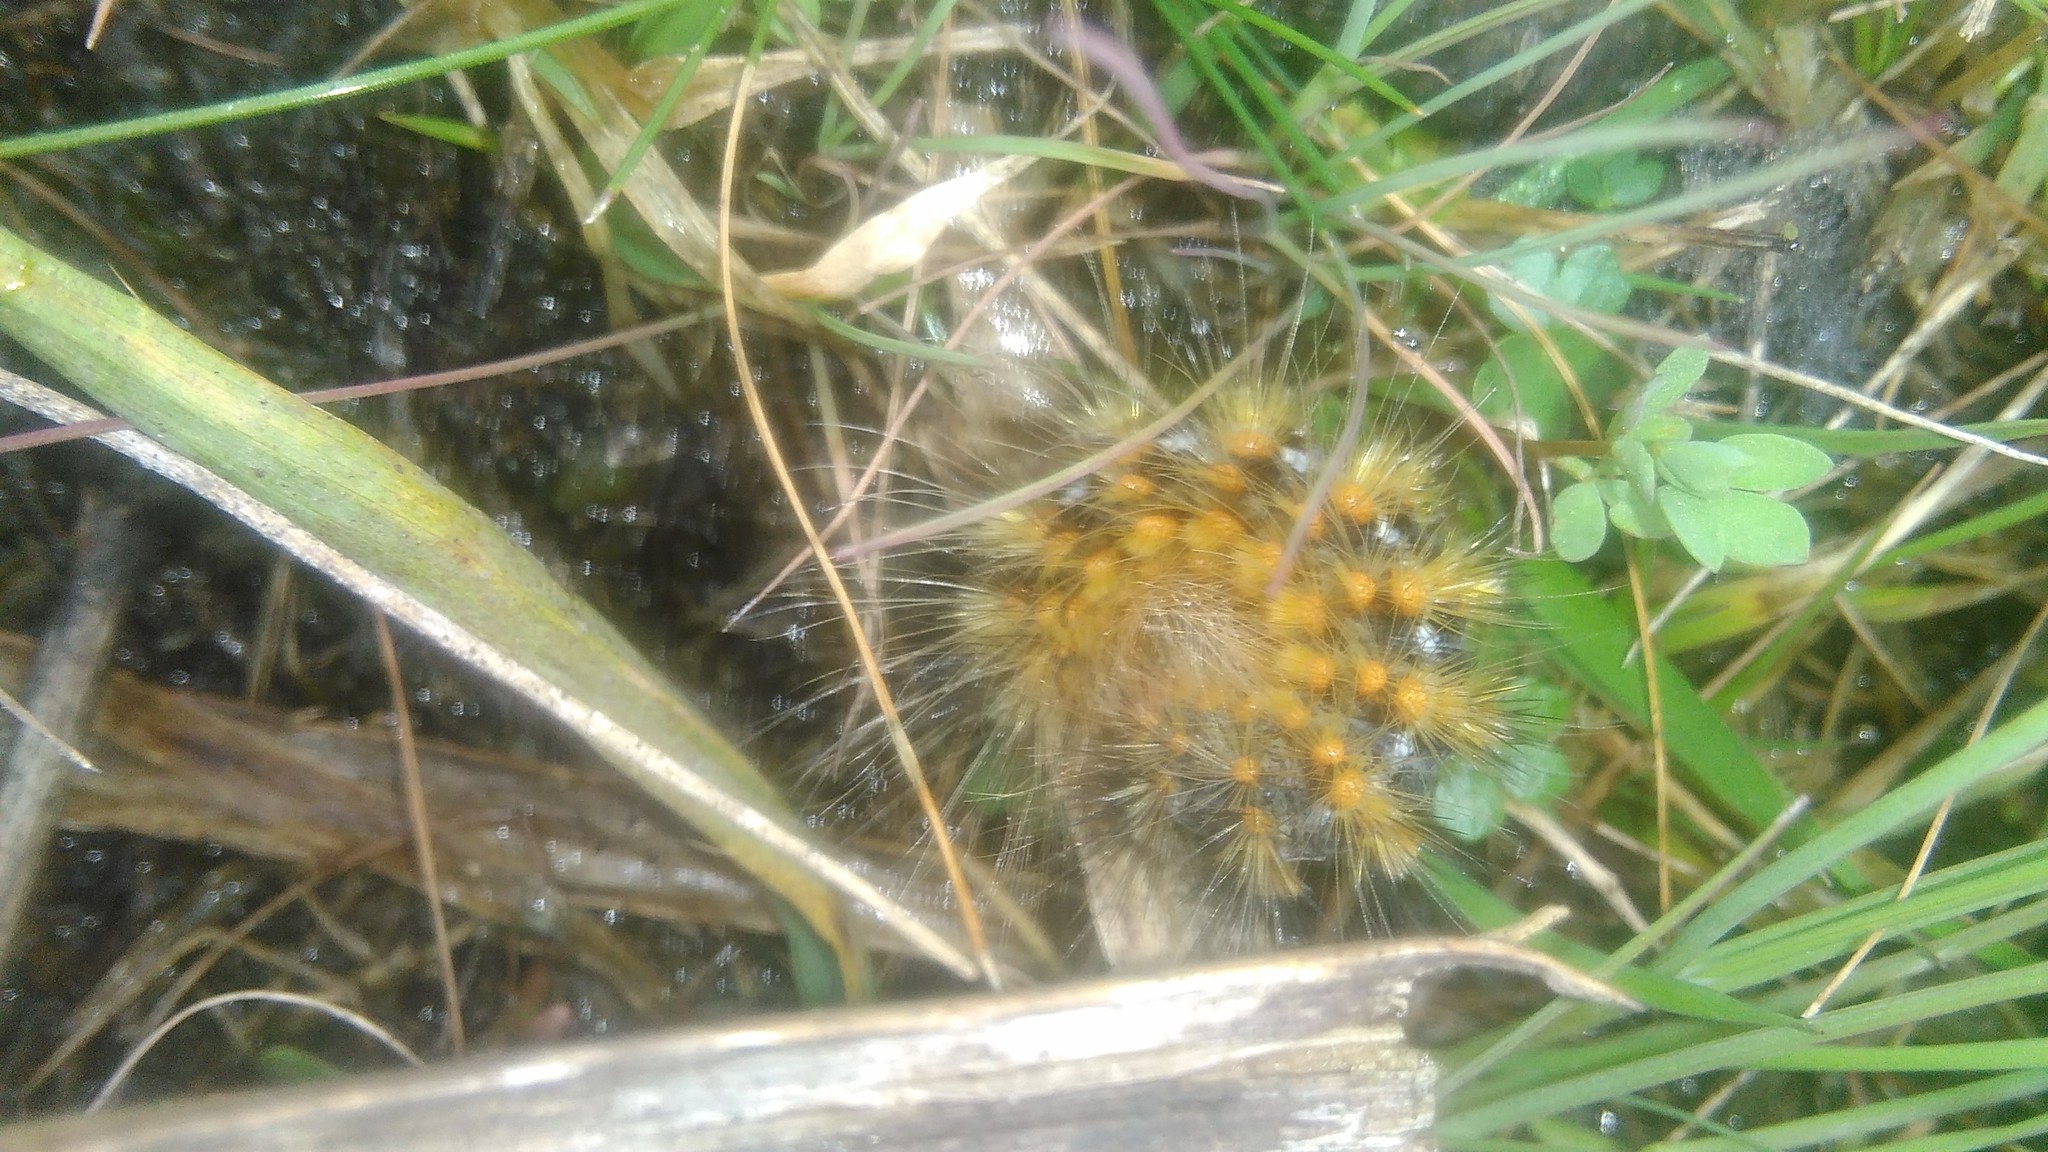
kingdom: Animalia
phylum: Arthropoda
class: Insecta
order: Lepidoptera
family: Erebidae
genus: Paracles
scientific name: Paracles deserticola
